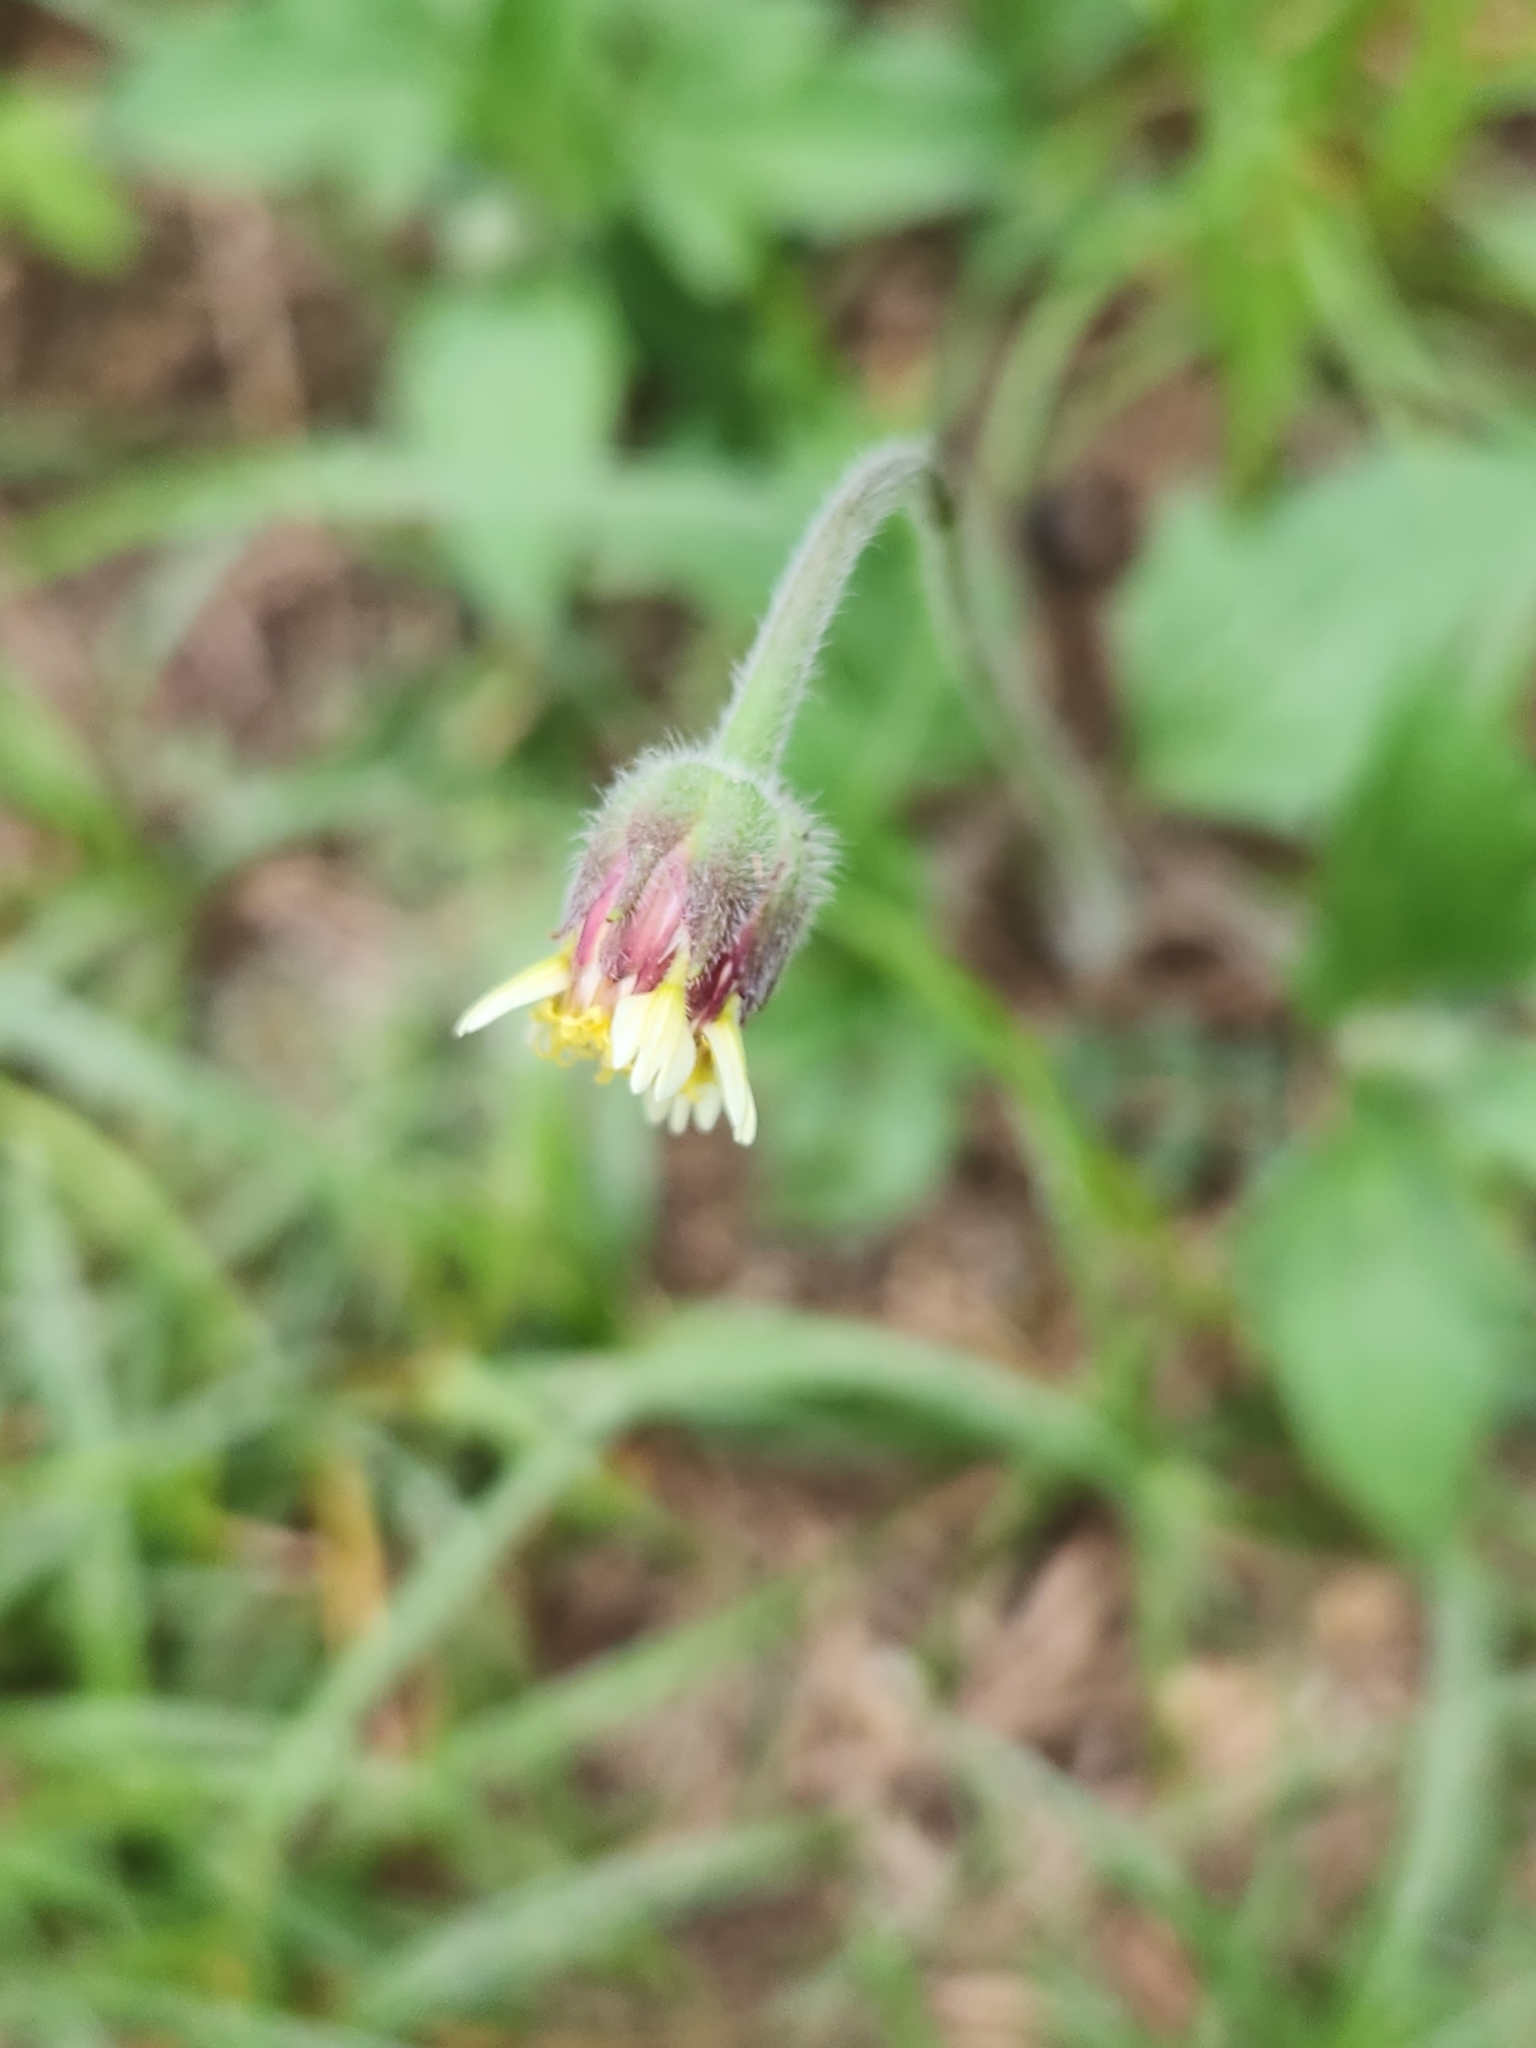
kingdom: Plantae
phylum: Tracheophyta
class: Magnoliopsida
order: Asterales
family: Asteraceae
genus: Tridax
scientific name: Tridax procumbens
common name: Coatbuttons
